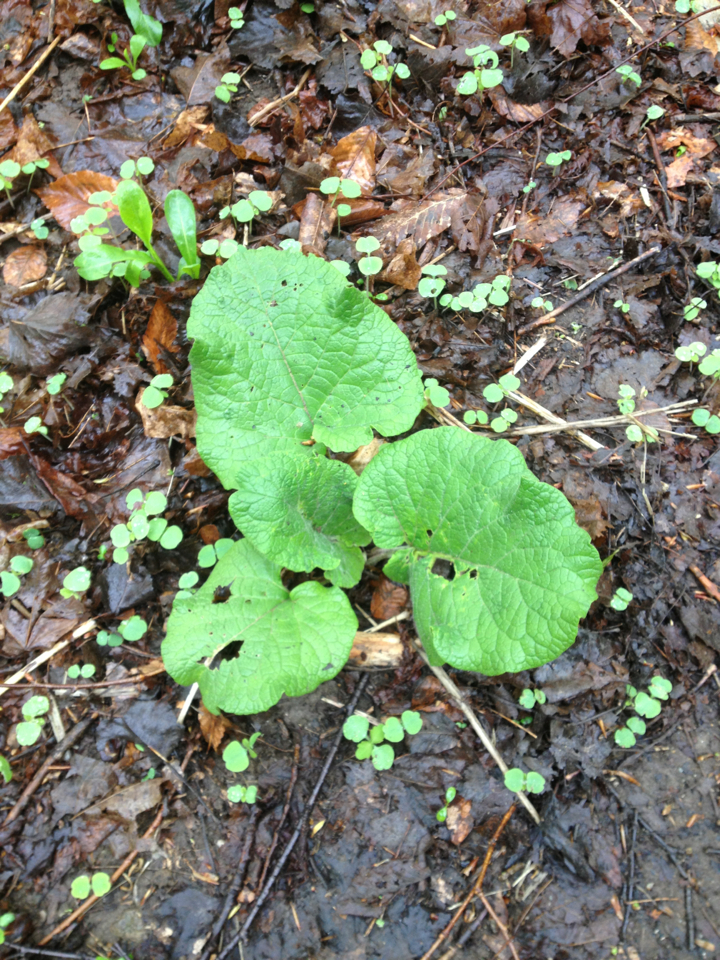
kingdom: Plantae
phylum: Tracheophyta
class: Magnoliopsida
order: Asterales
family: Asteraceae
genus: Arctium
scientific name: Arctium
